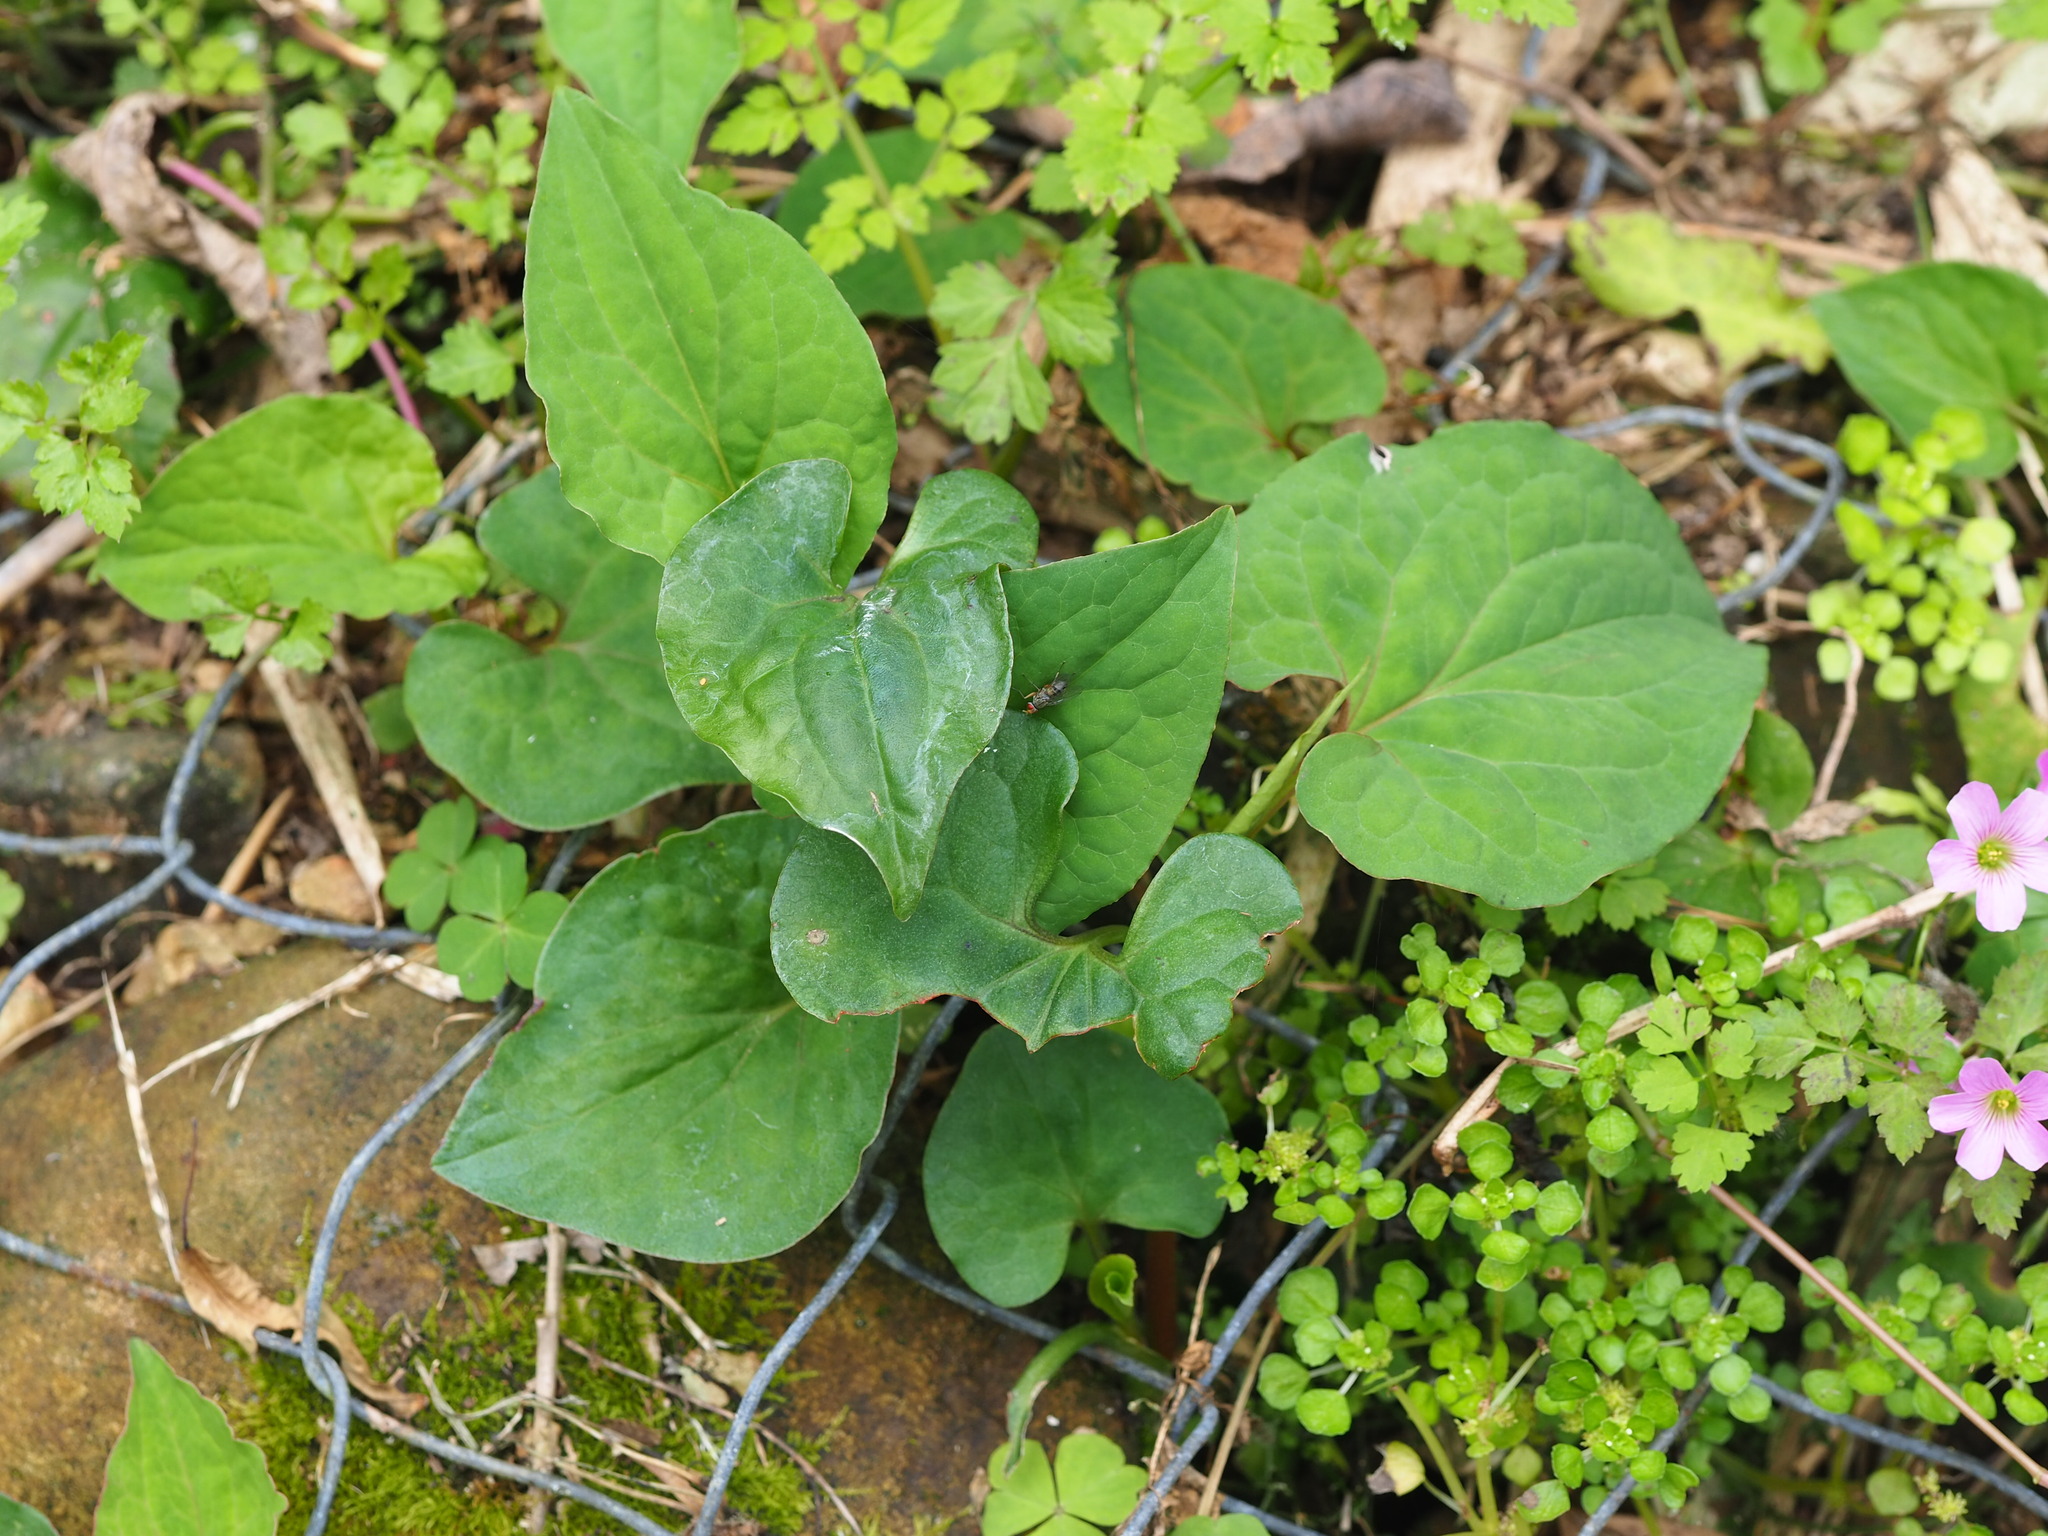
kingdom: Plantae
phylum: Tracheophyta
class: Magnoliopsida
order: Piperales
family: Saururaceae
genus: Houttuynia
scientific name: Houttuynia cordata
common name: Chameleon
